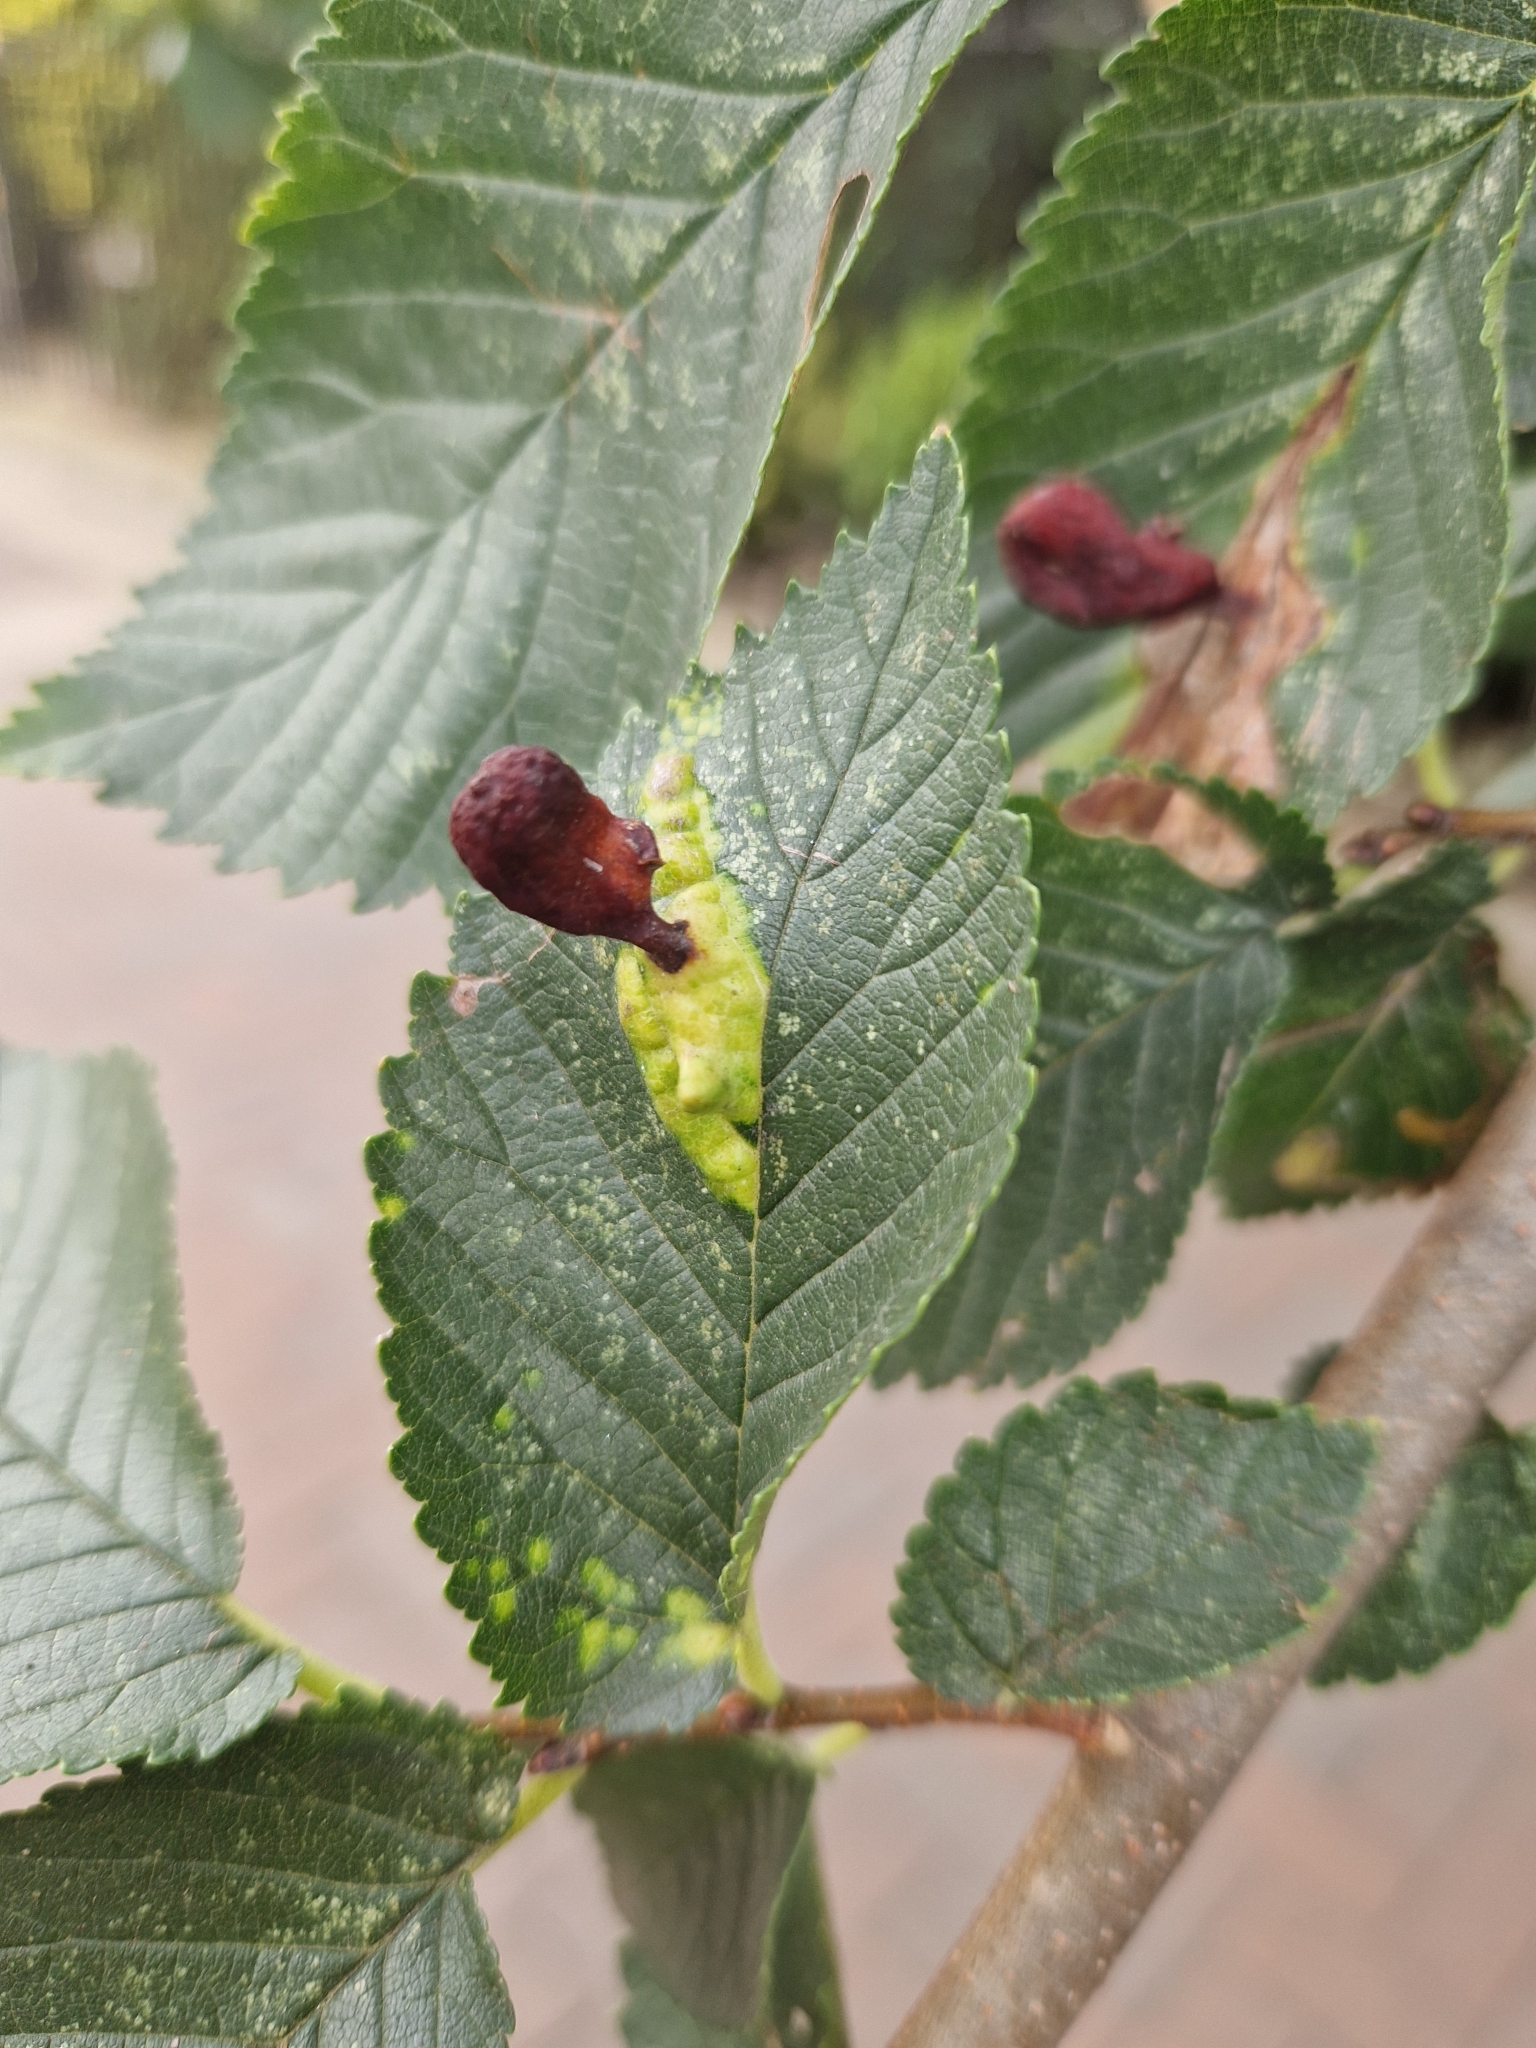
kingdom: Animalia
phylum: Arthropoda
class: Insecta
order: Hemiptera
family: Aphididae
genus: Tetraneura
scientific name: Tetraneura ulmi
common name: Aphid
